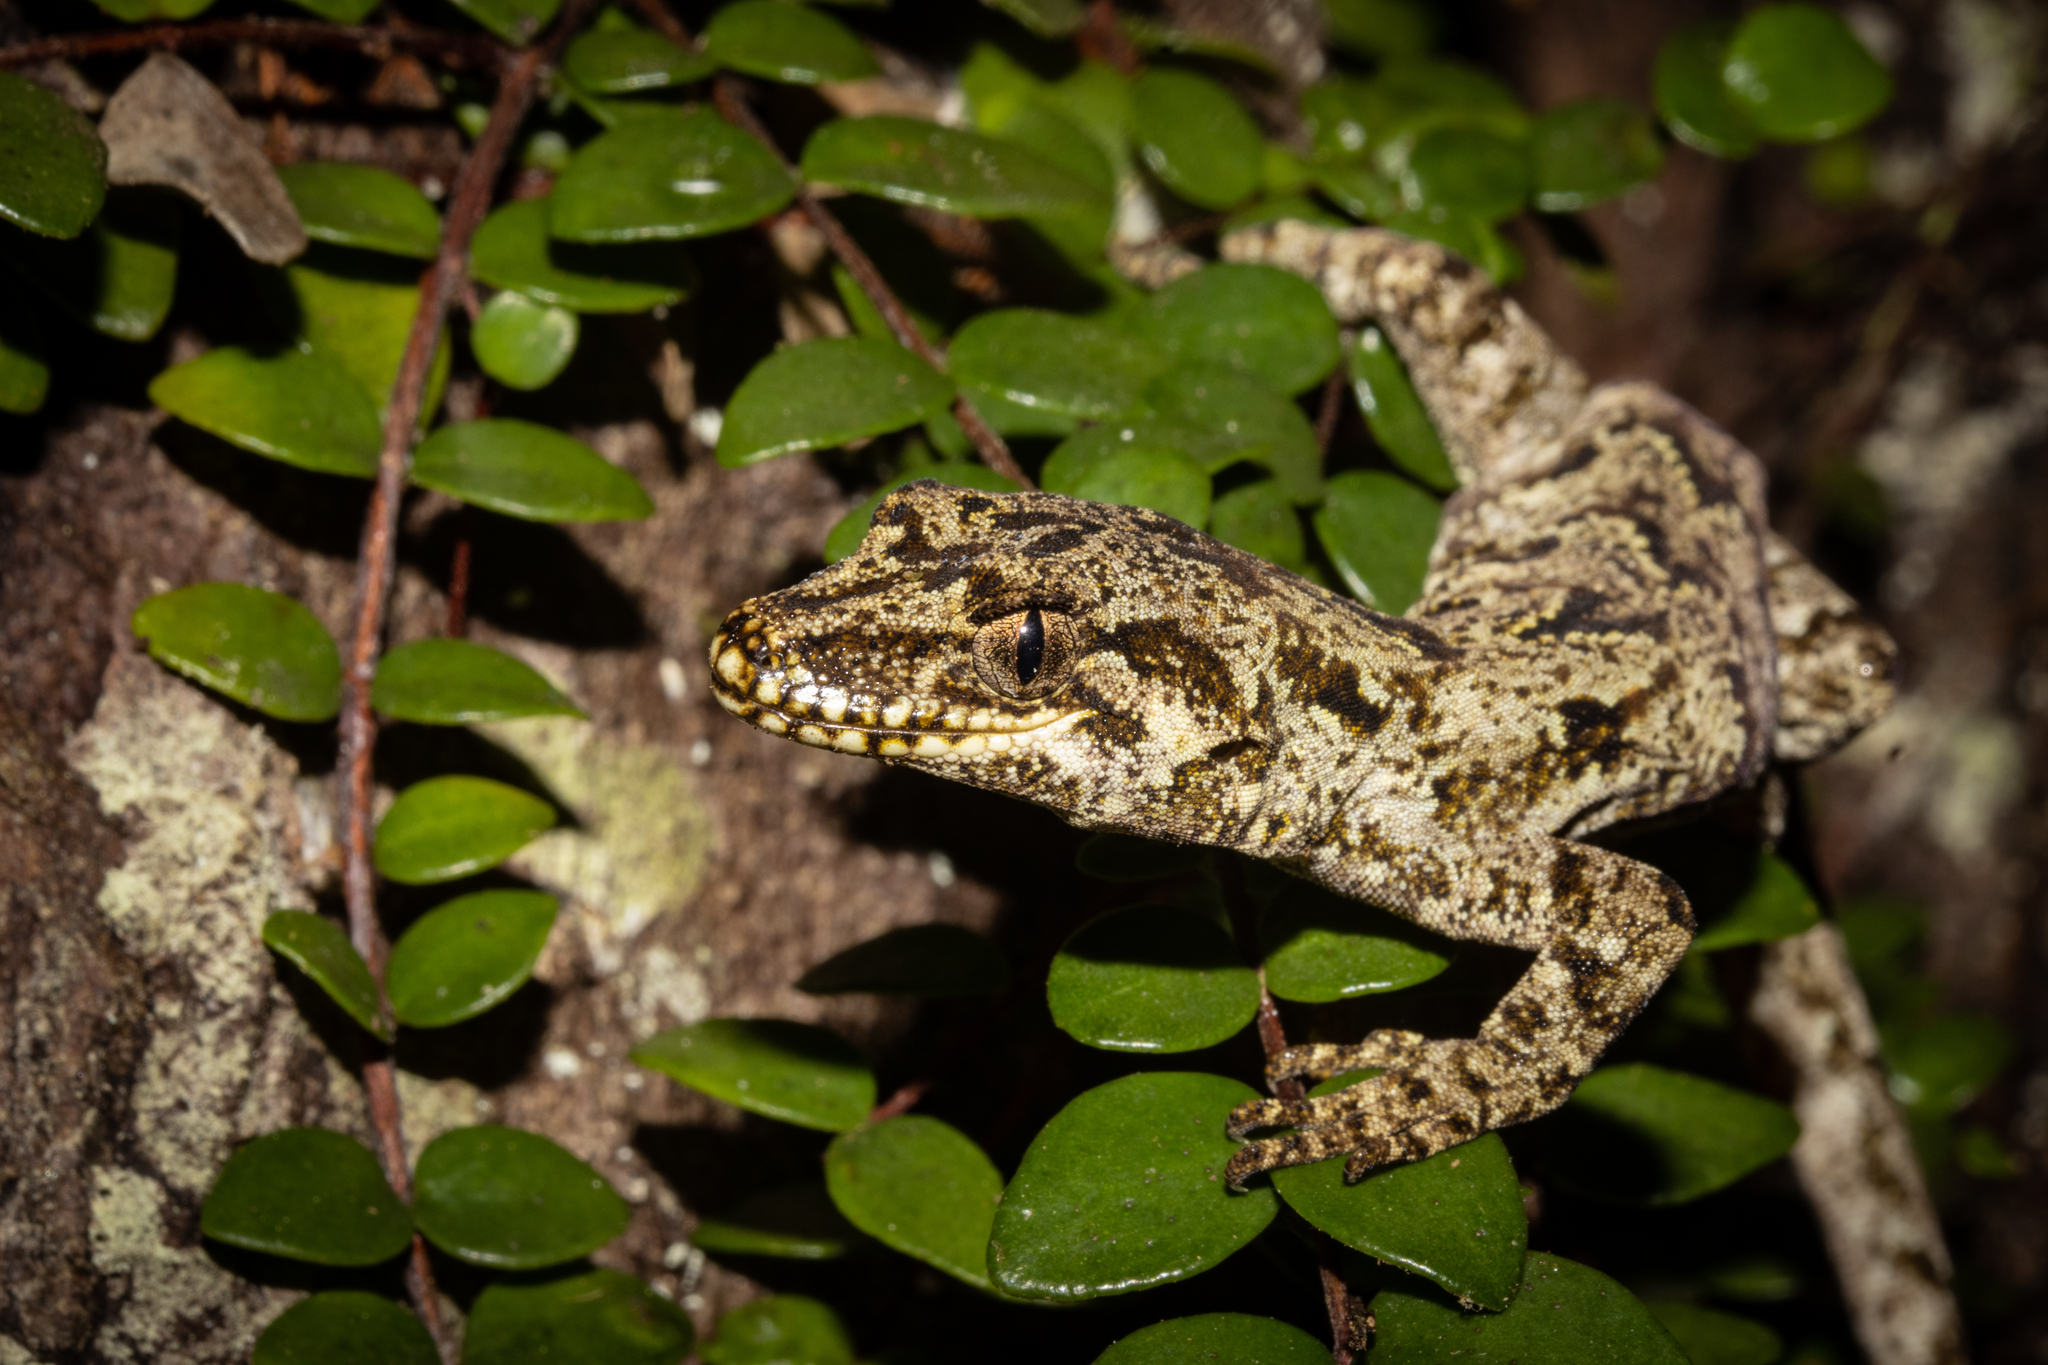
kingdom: Animalia
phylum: Chordata
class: Squamata
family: Diplodactylidae
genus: Mokopirirakau
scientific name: Mokopirirakau granulatus
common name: Forest gecko
